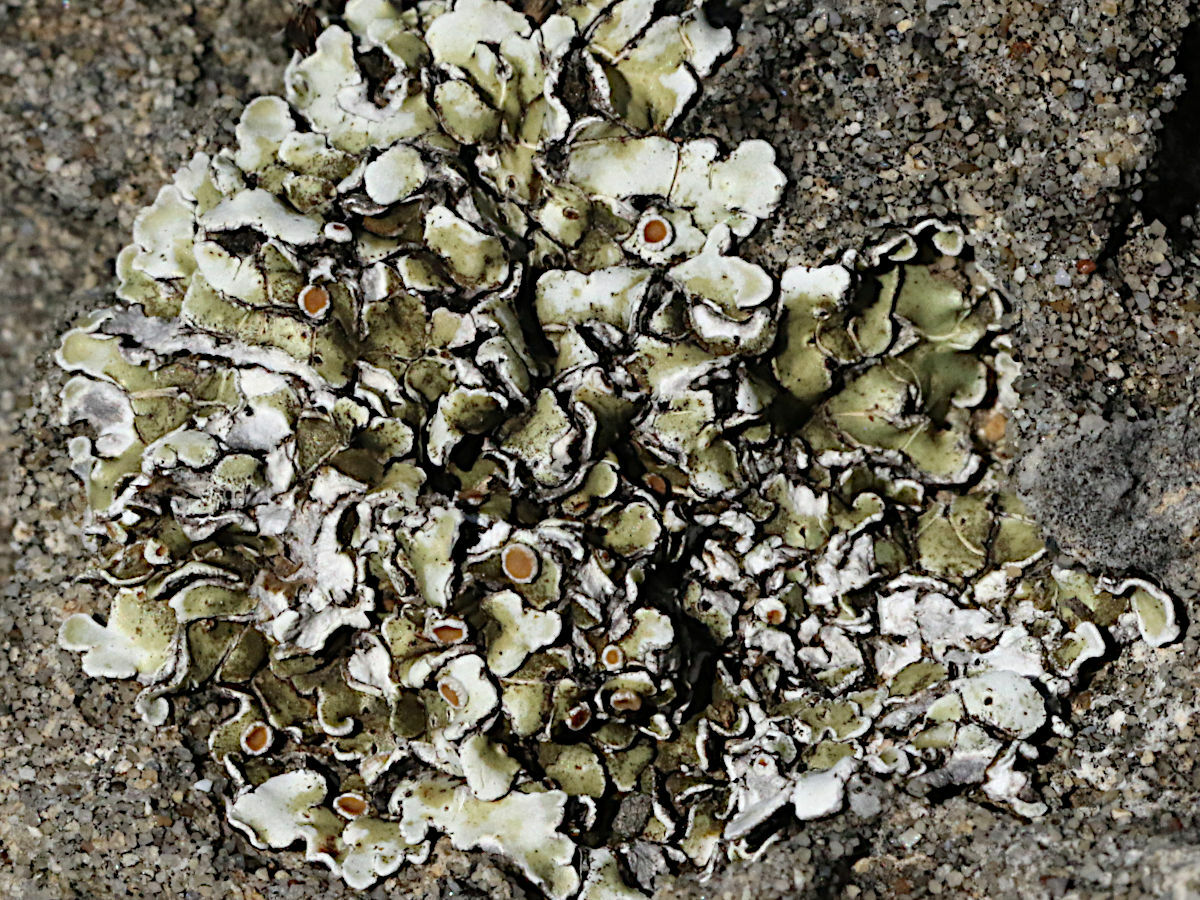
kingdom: Fungi
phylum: Ascomycota
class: Lecanoromycetes
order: Lecanorales
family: Stereocaulaceae
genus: Squamarina
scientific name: Squamarina cartilaginea
